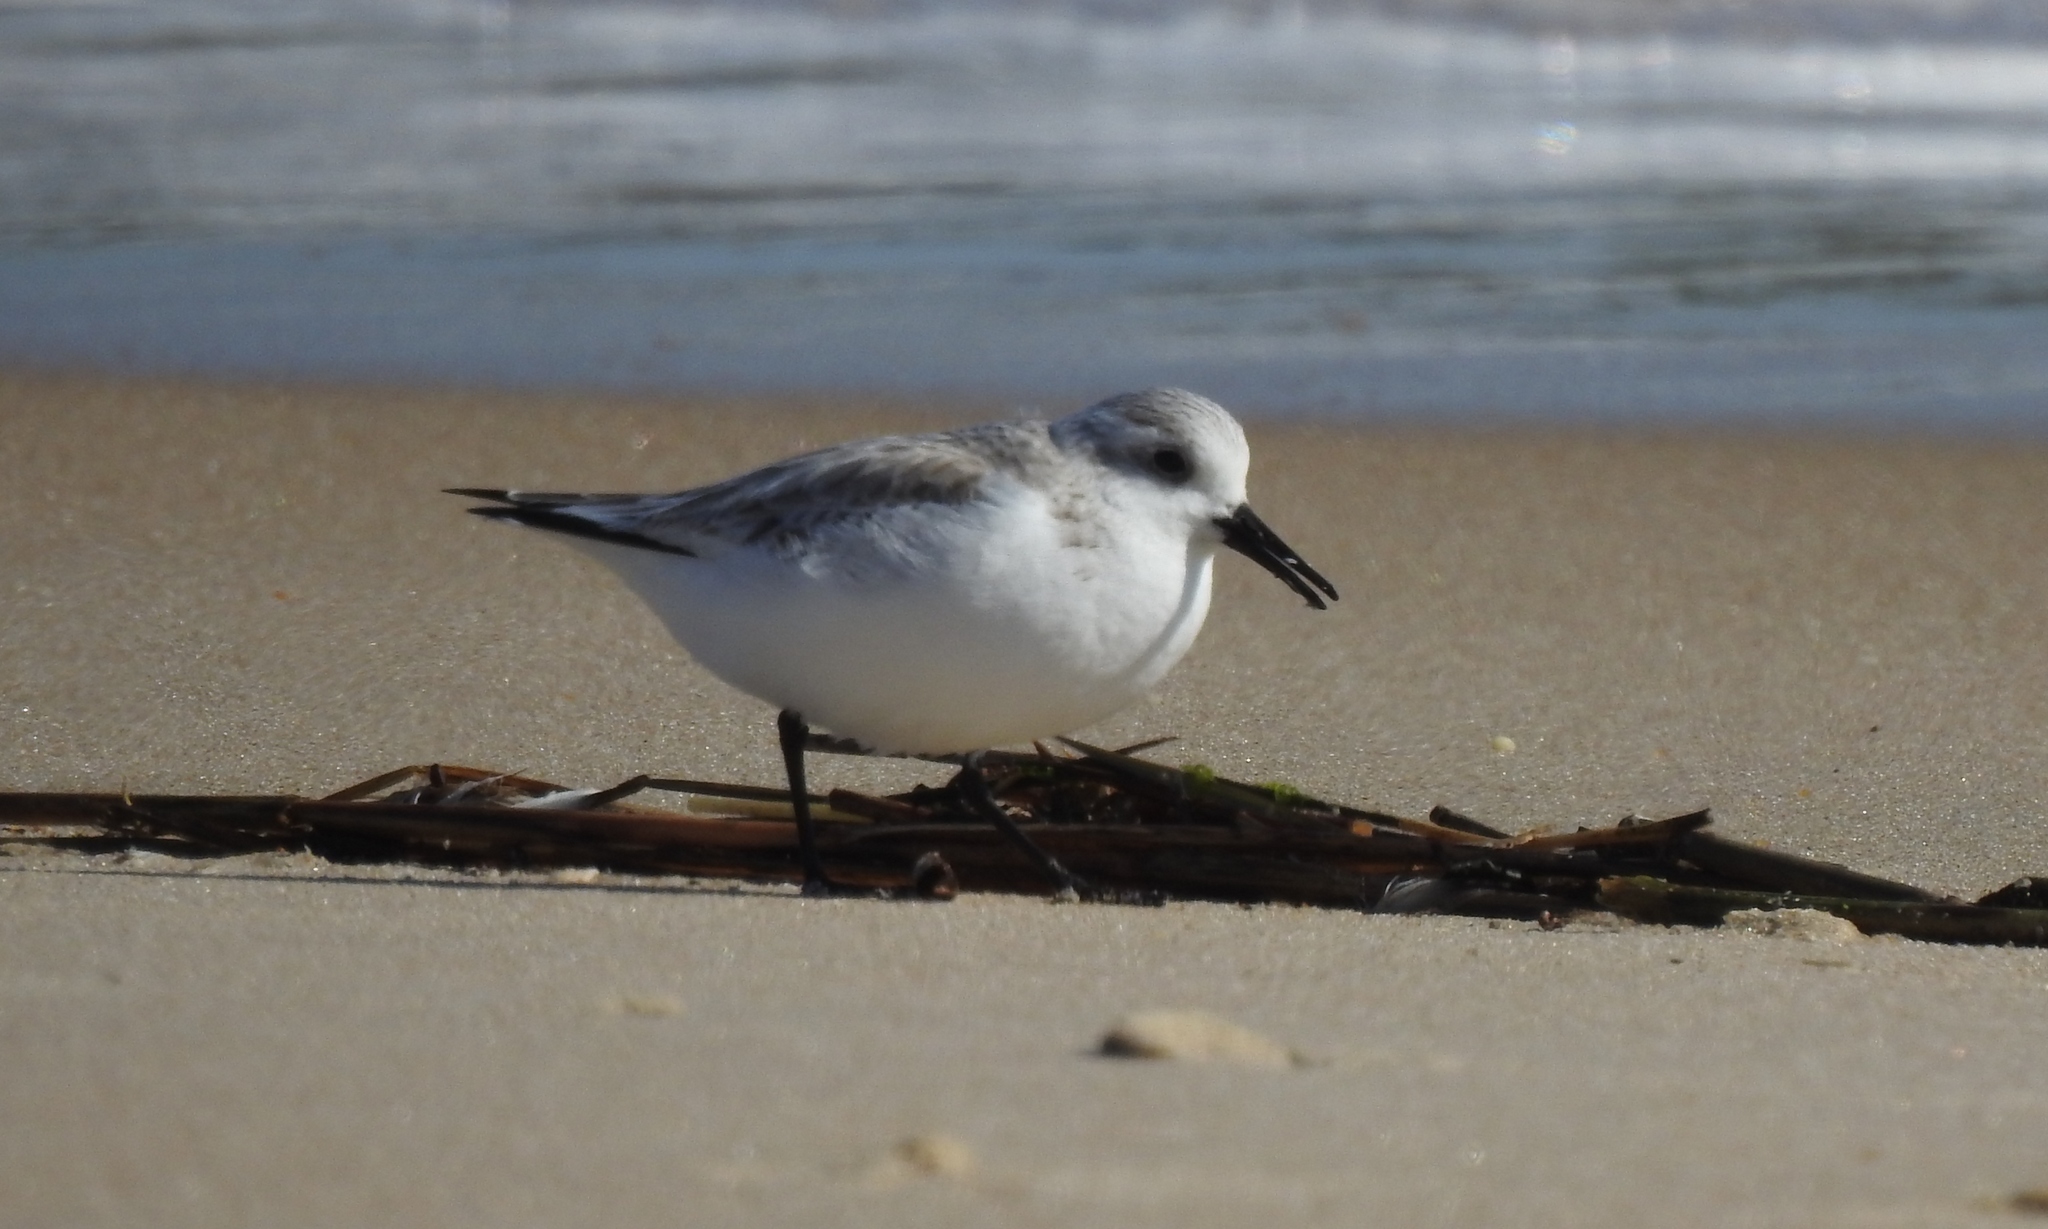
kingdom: Animalia
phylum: Chordata
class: Aves
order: Charadriiformes
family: Scolopacidae
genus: Calidris
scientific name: Calidris alba
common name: Sanderling
